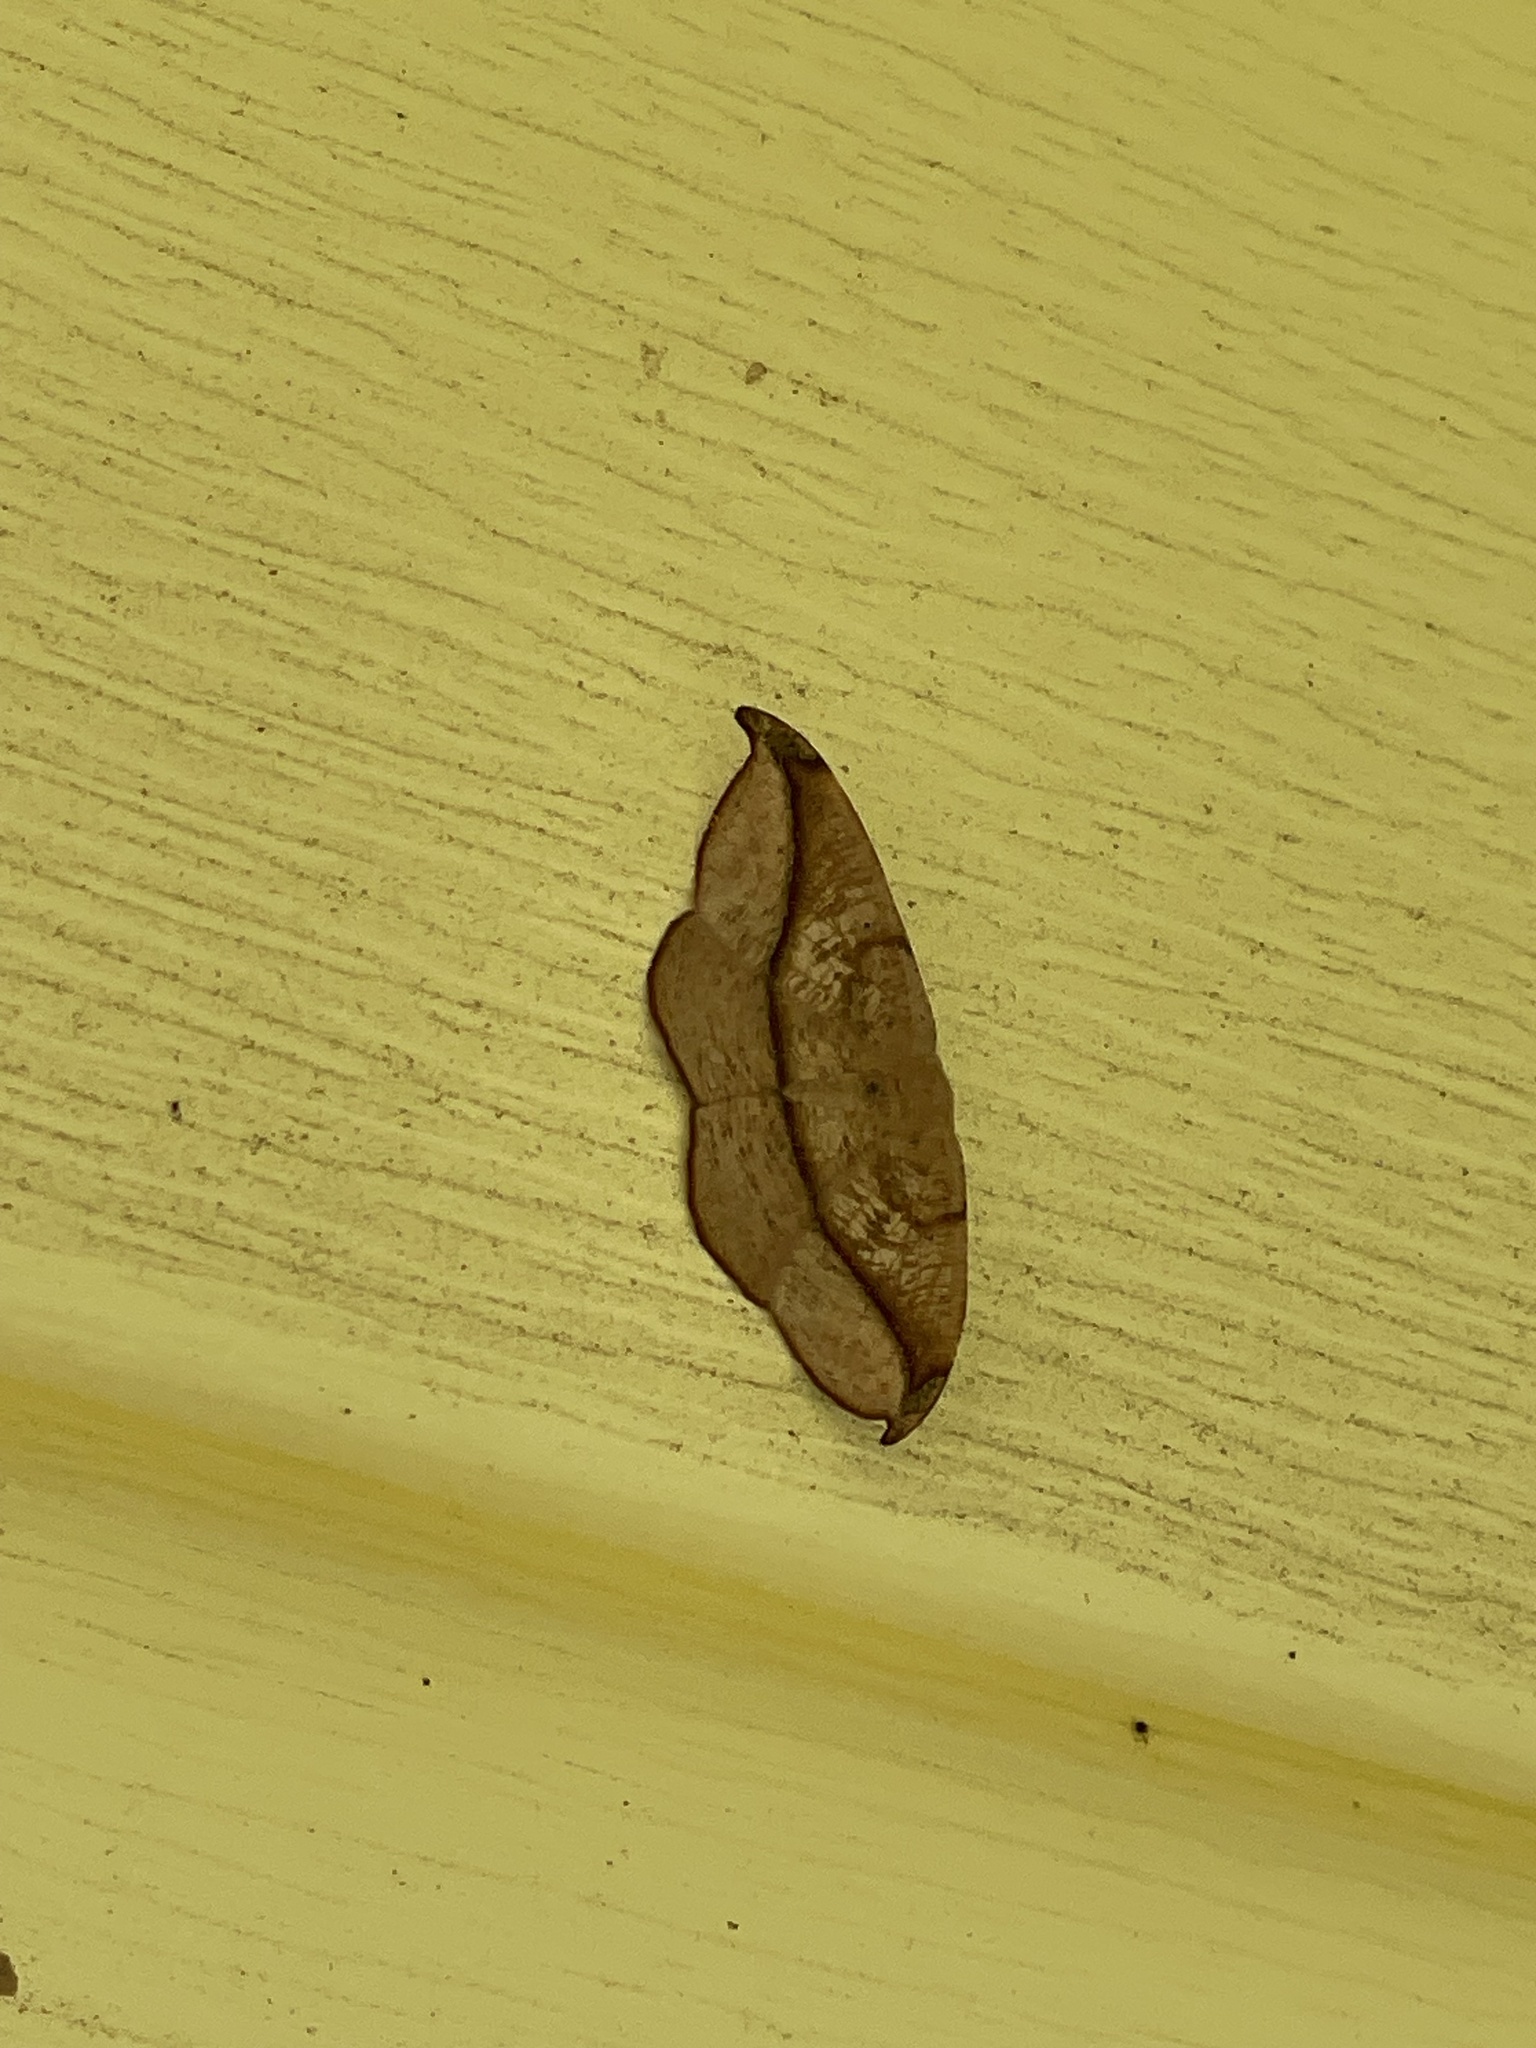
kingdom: Animalia
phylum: Arthropoda
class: Insecta
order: Lepidoptera
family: Geometridae
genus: Patalene
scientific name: Patalene olyzonaria
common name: Juniper geometer moth
